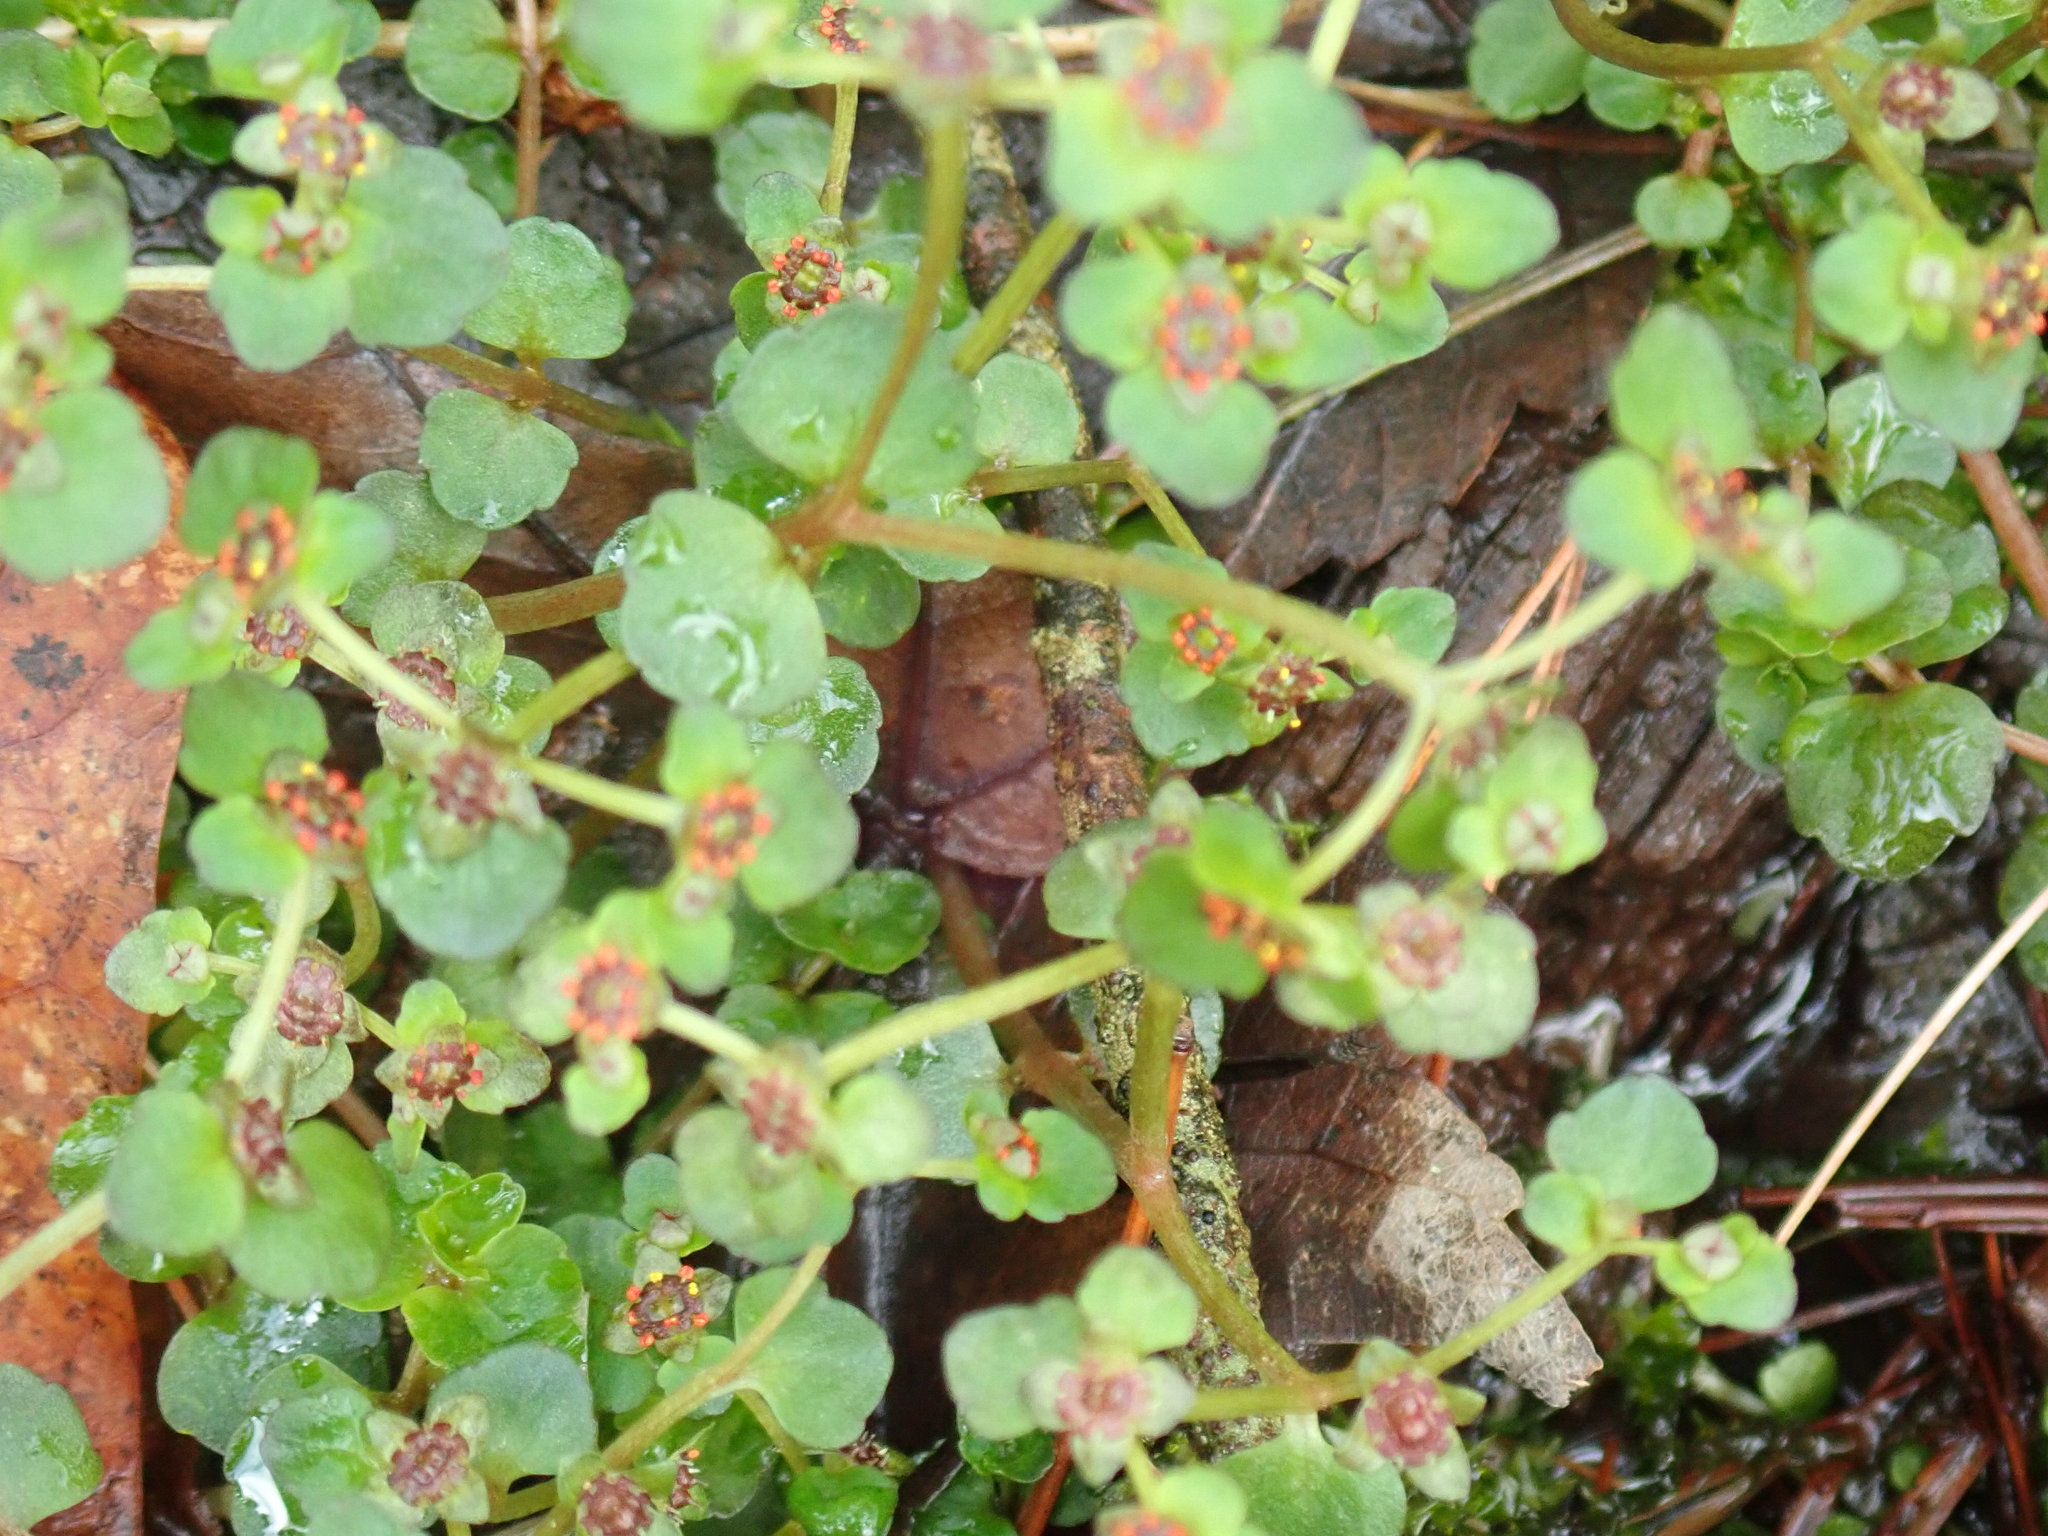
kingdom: Plantae
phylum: Tracheophyta
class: Magnoliopsida
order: Saxifragales
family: Saxifragaceae
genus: Chrysosplenium
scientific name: Chrysosplenium americanum
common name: American golden-saxifrage
